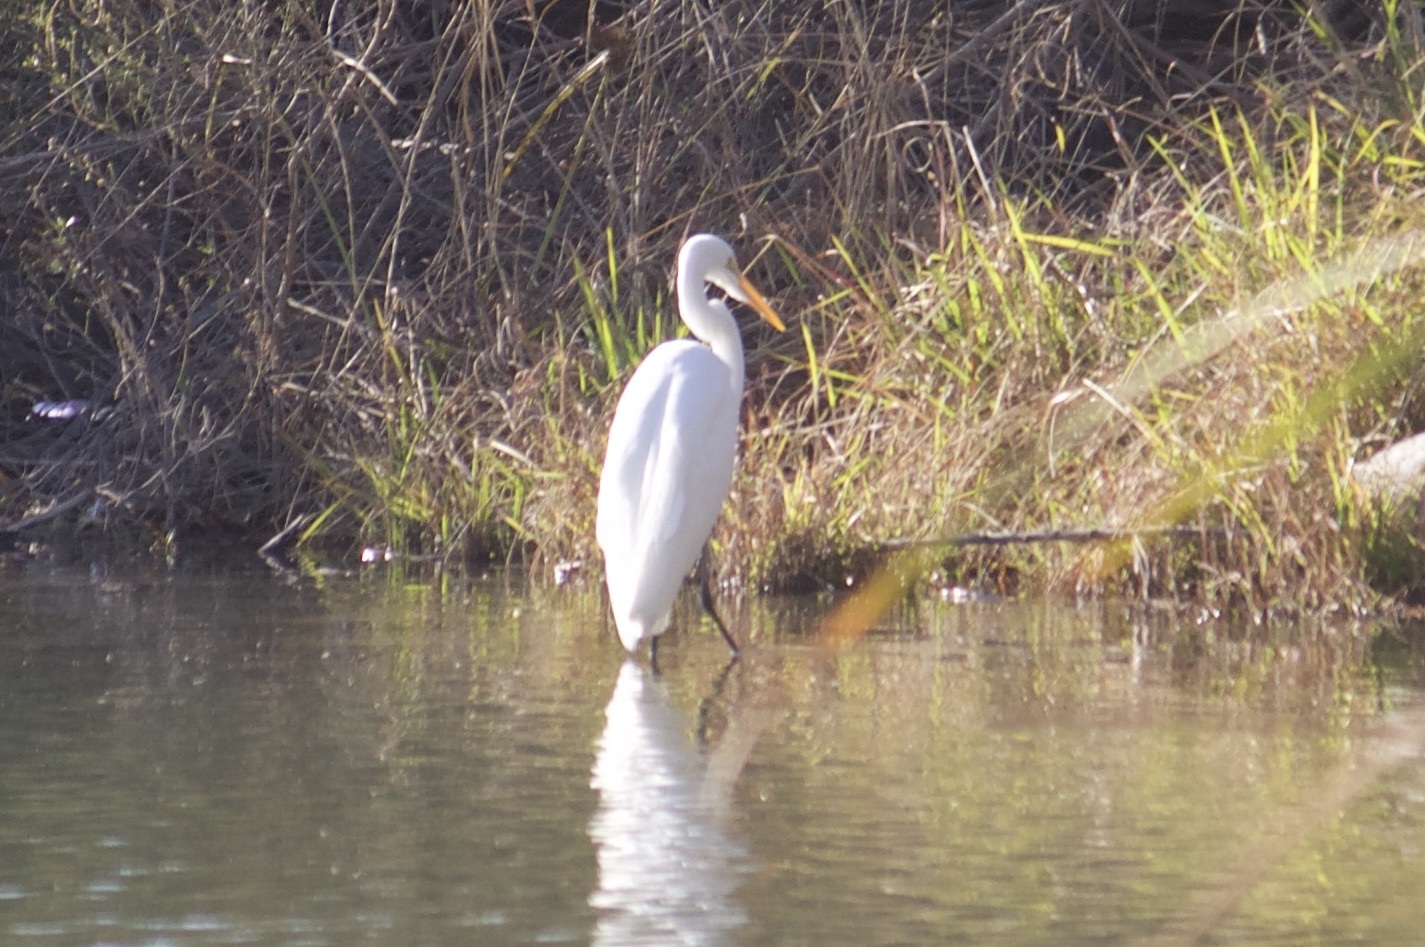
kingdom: Animalia
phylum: Chordata
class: Aves
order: Pelecaniformes
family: Ardeidae
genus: Ardea
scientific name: Ardea alba
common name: Great egret
